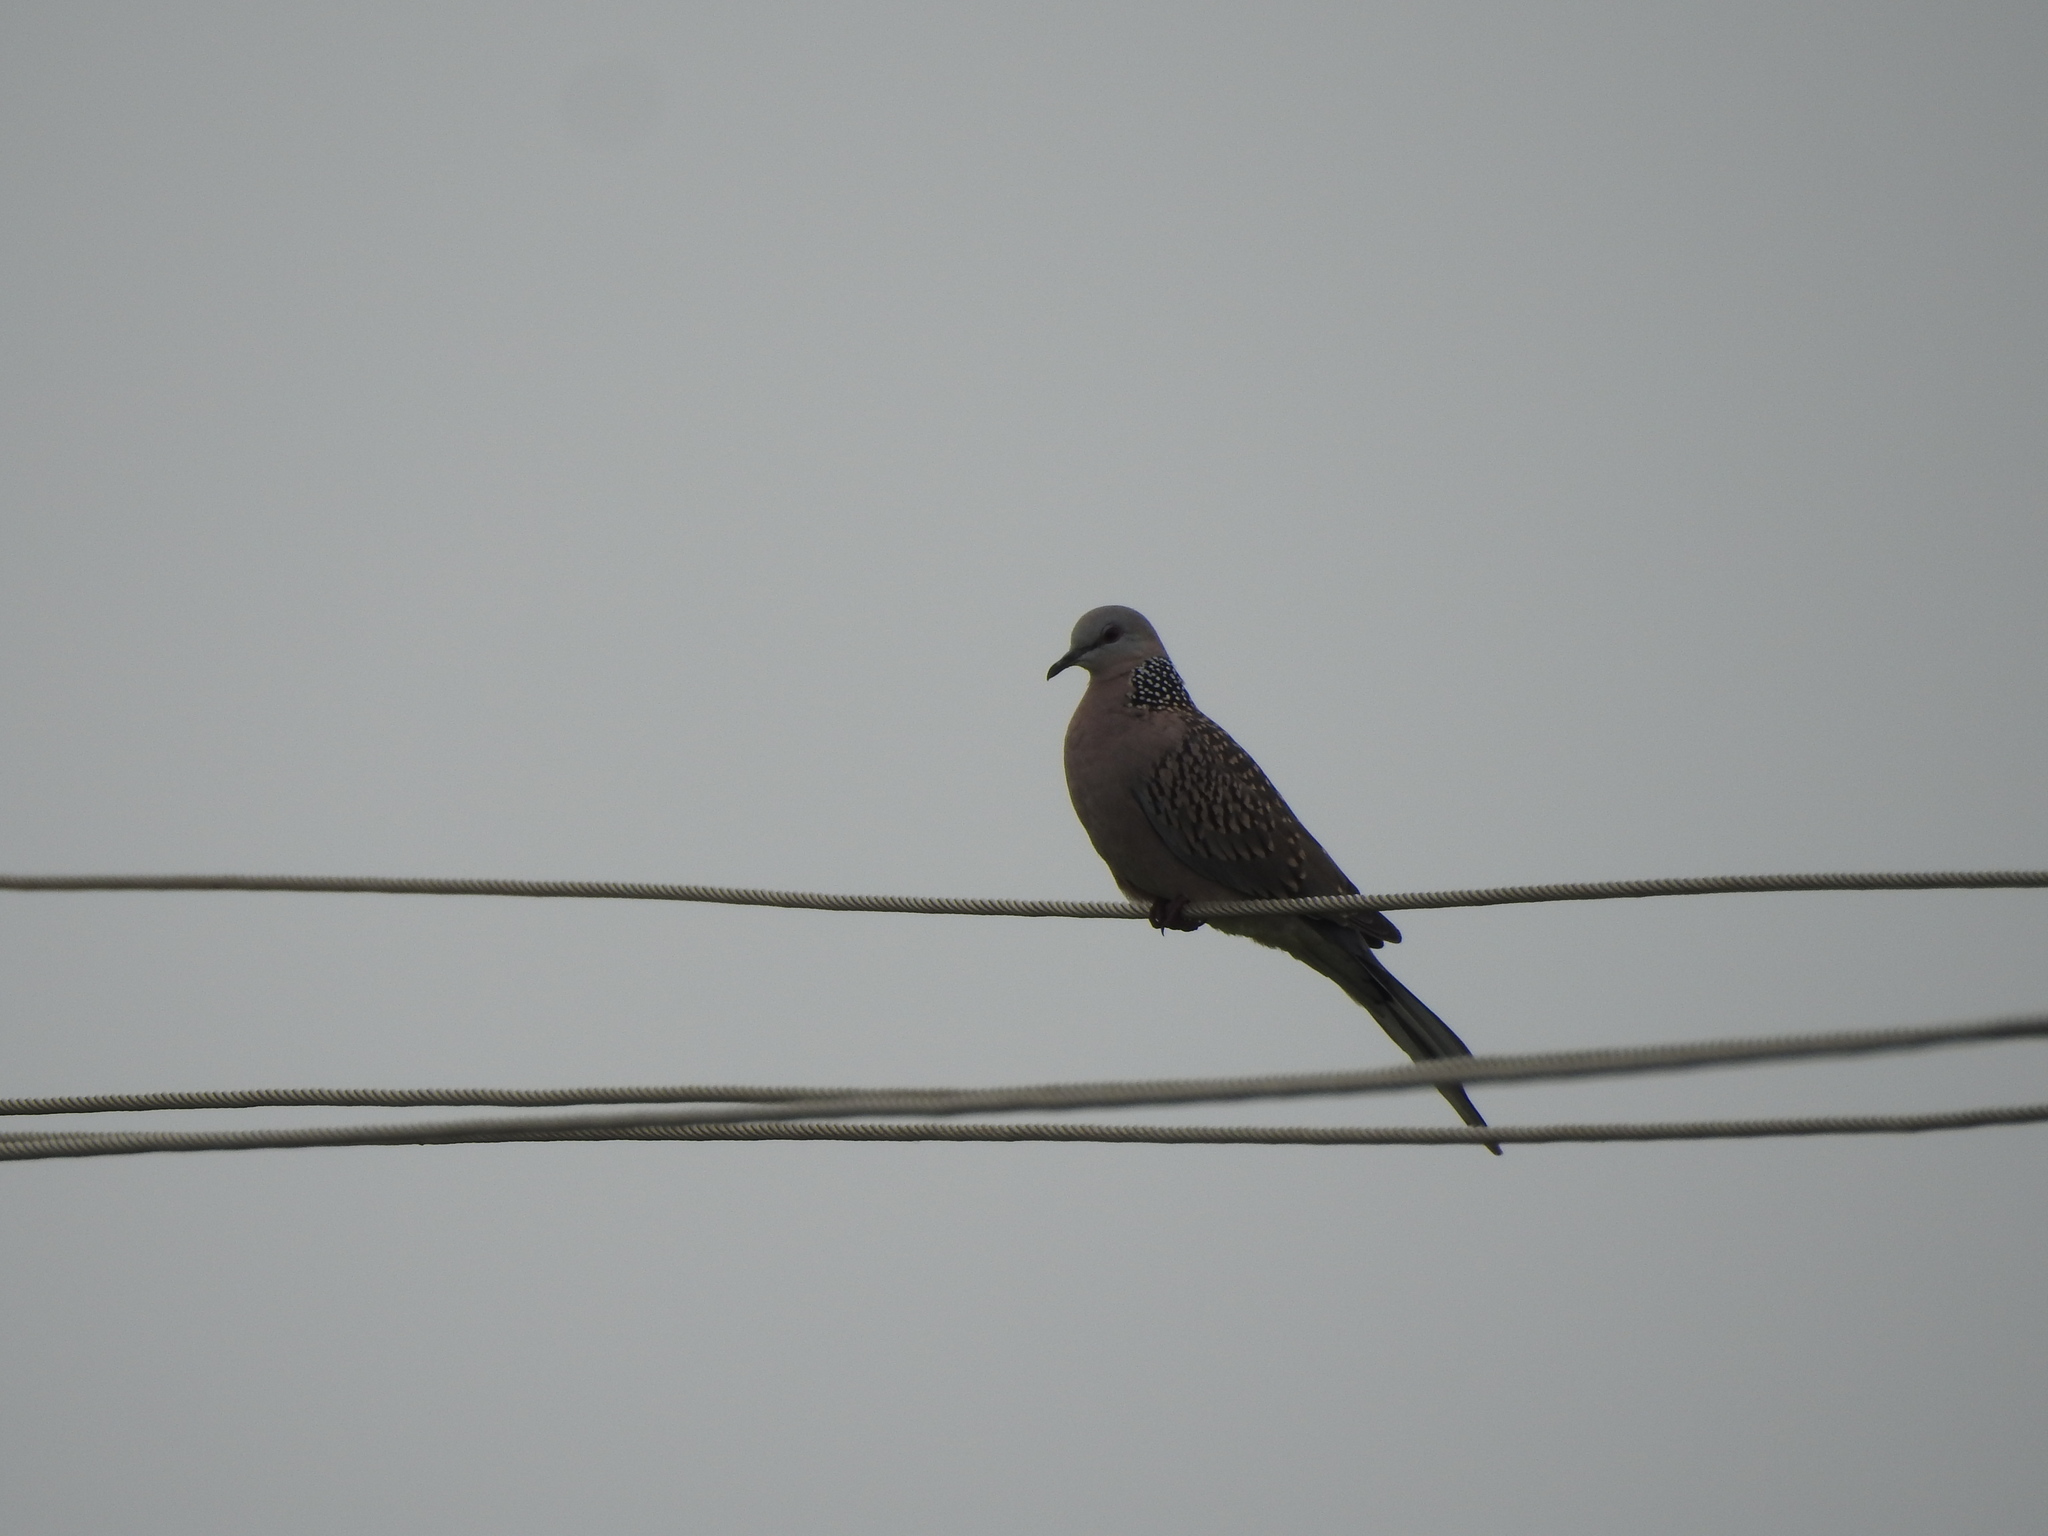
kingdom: Animalia
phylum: Chordata
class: Aves
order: Columbiformes
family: Columbidae
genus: Spilopelia
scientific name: Spilopelia chinensis
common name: Spotted dove
